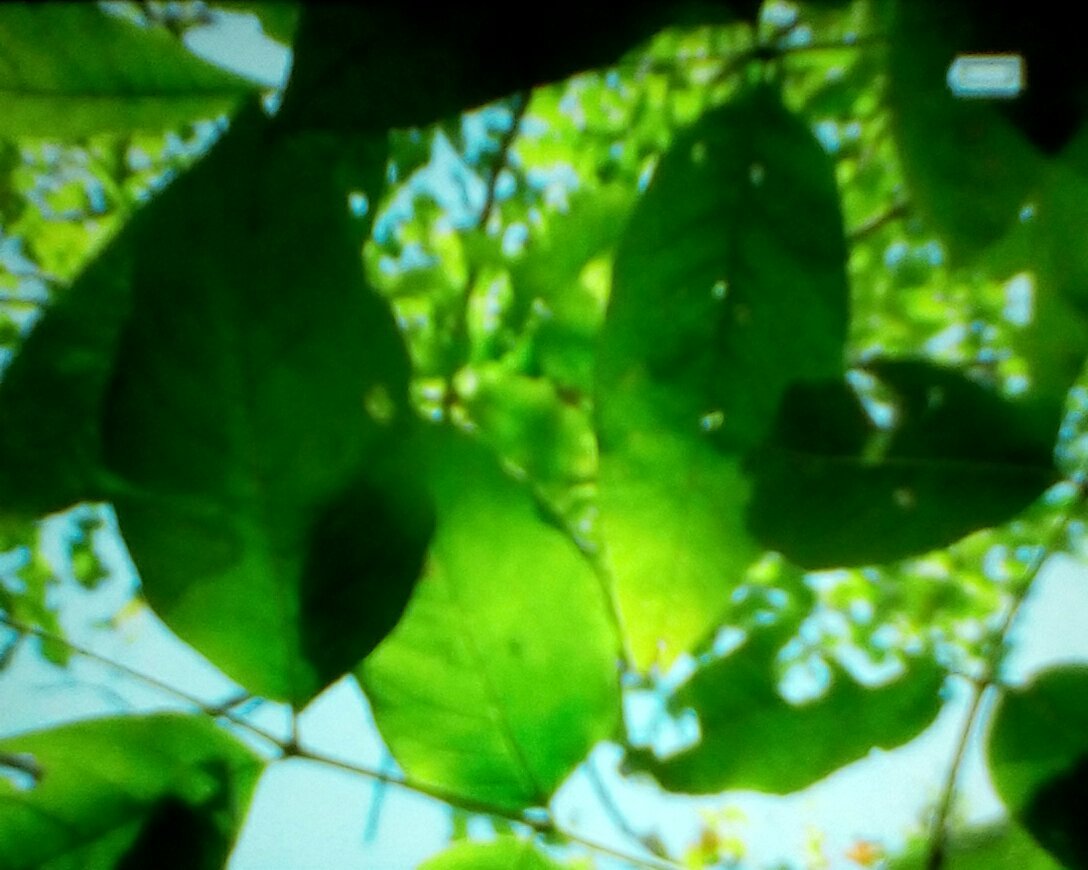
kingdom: Plantae
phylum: Tracheophyta
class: Magnoliopsida
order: Lamiales
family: Oleaceae
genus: Fraxinus
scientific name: Fraxinus americana
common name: White ash
